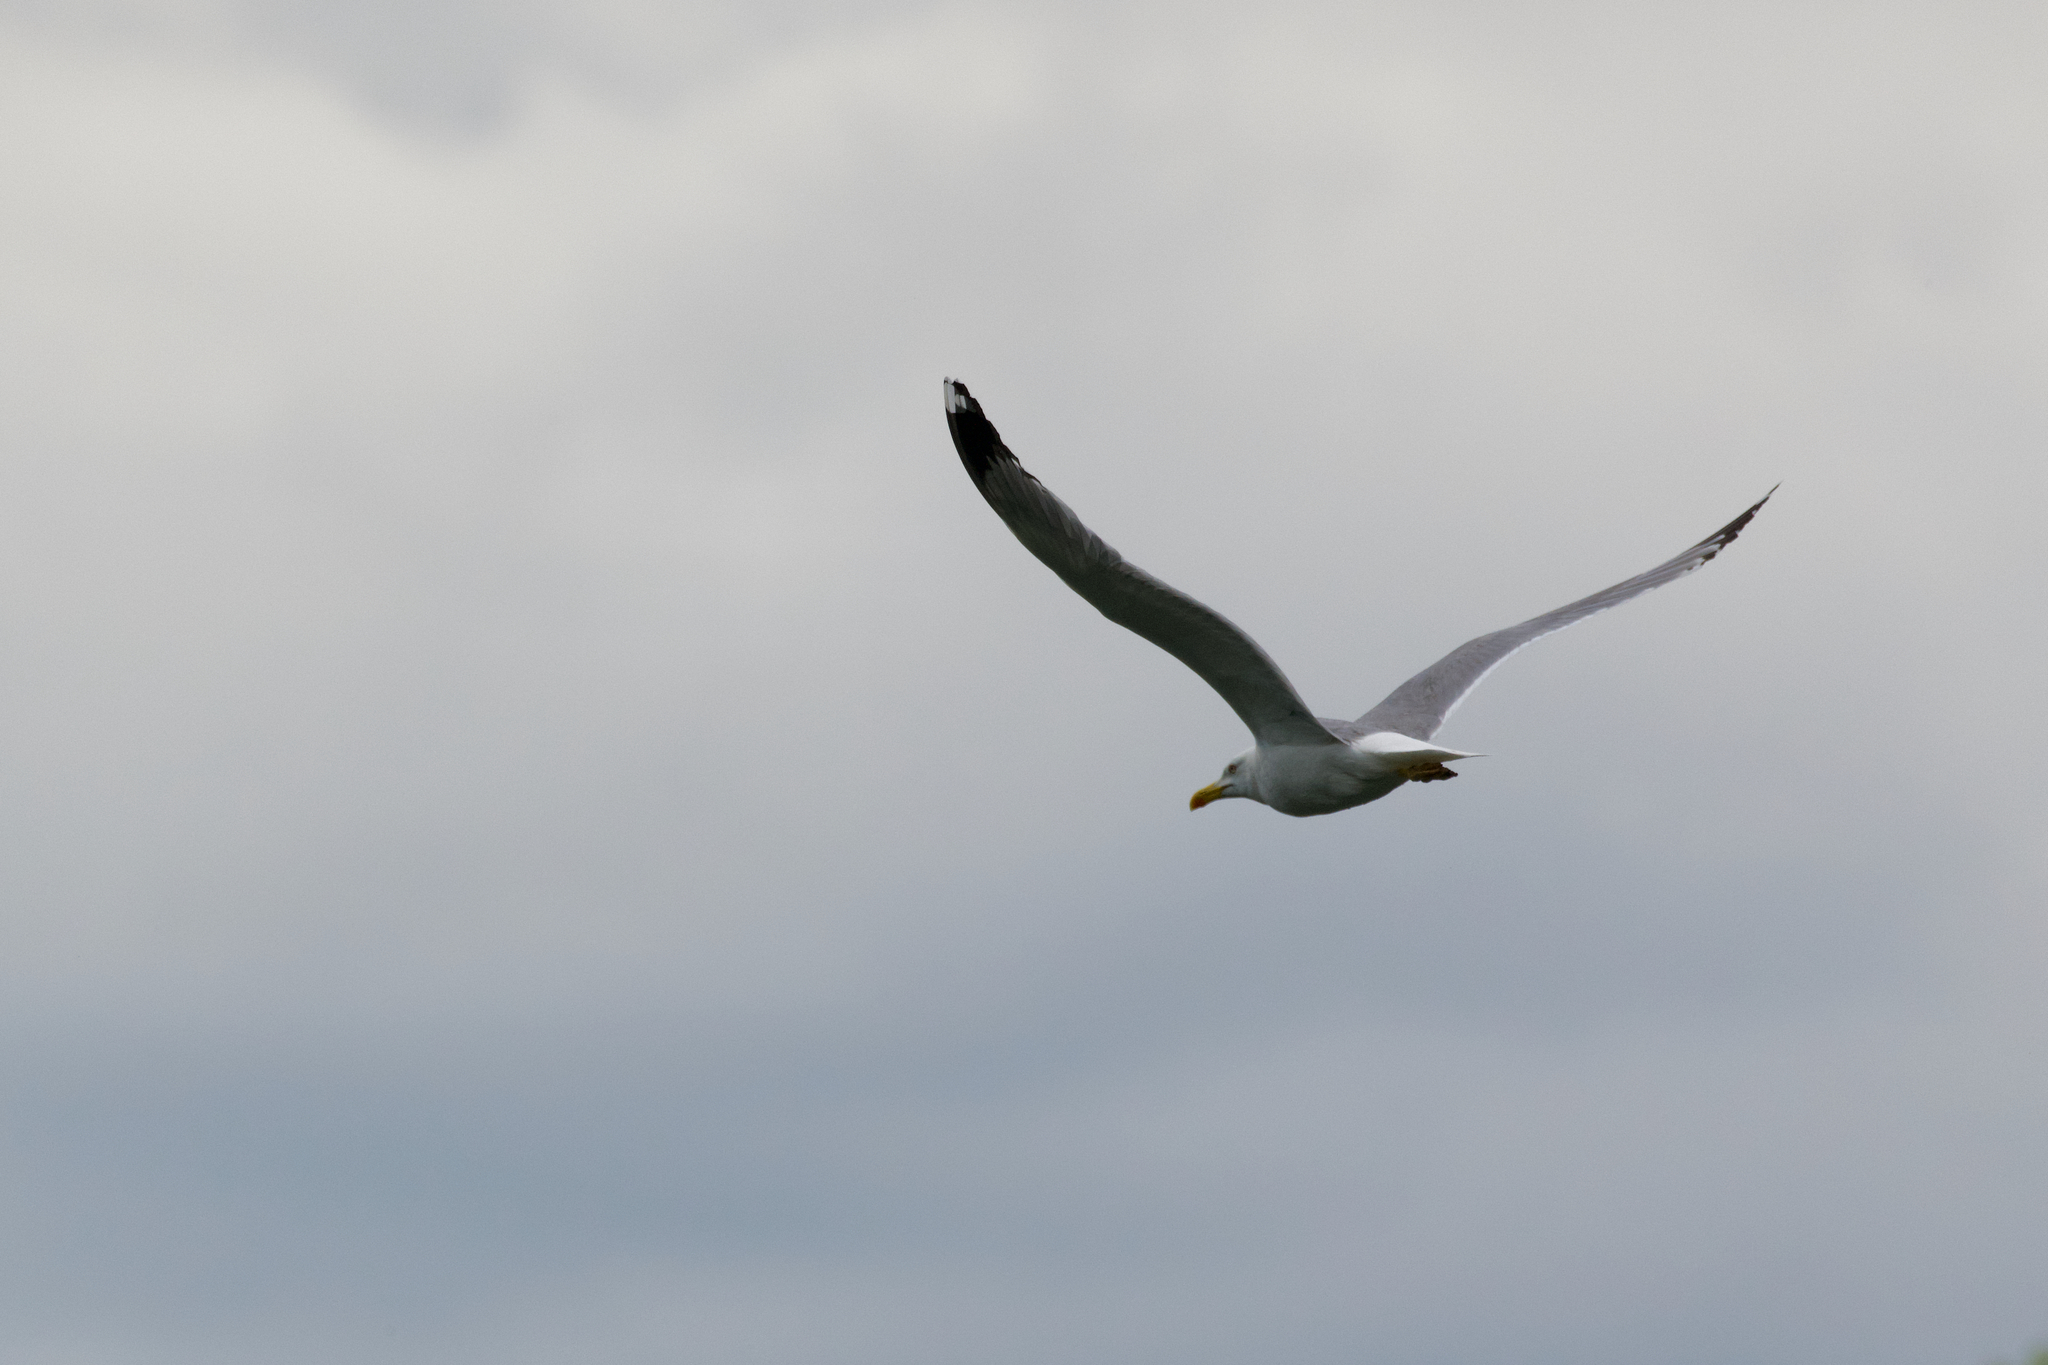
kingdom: Animalia
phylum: Chordata
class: Aves
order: Charadriiformes
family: Laridae
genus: Larus
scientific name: Larus michahellis
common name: Yellow-legged gull
